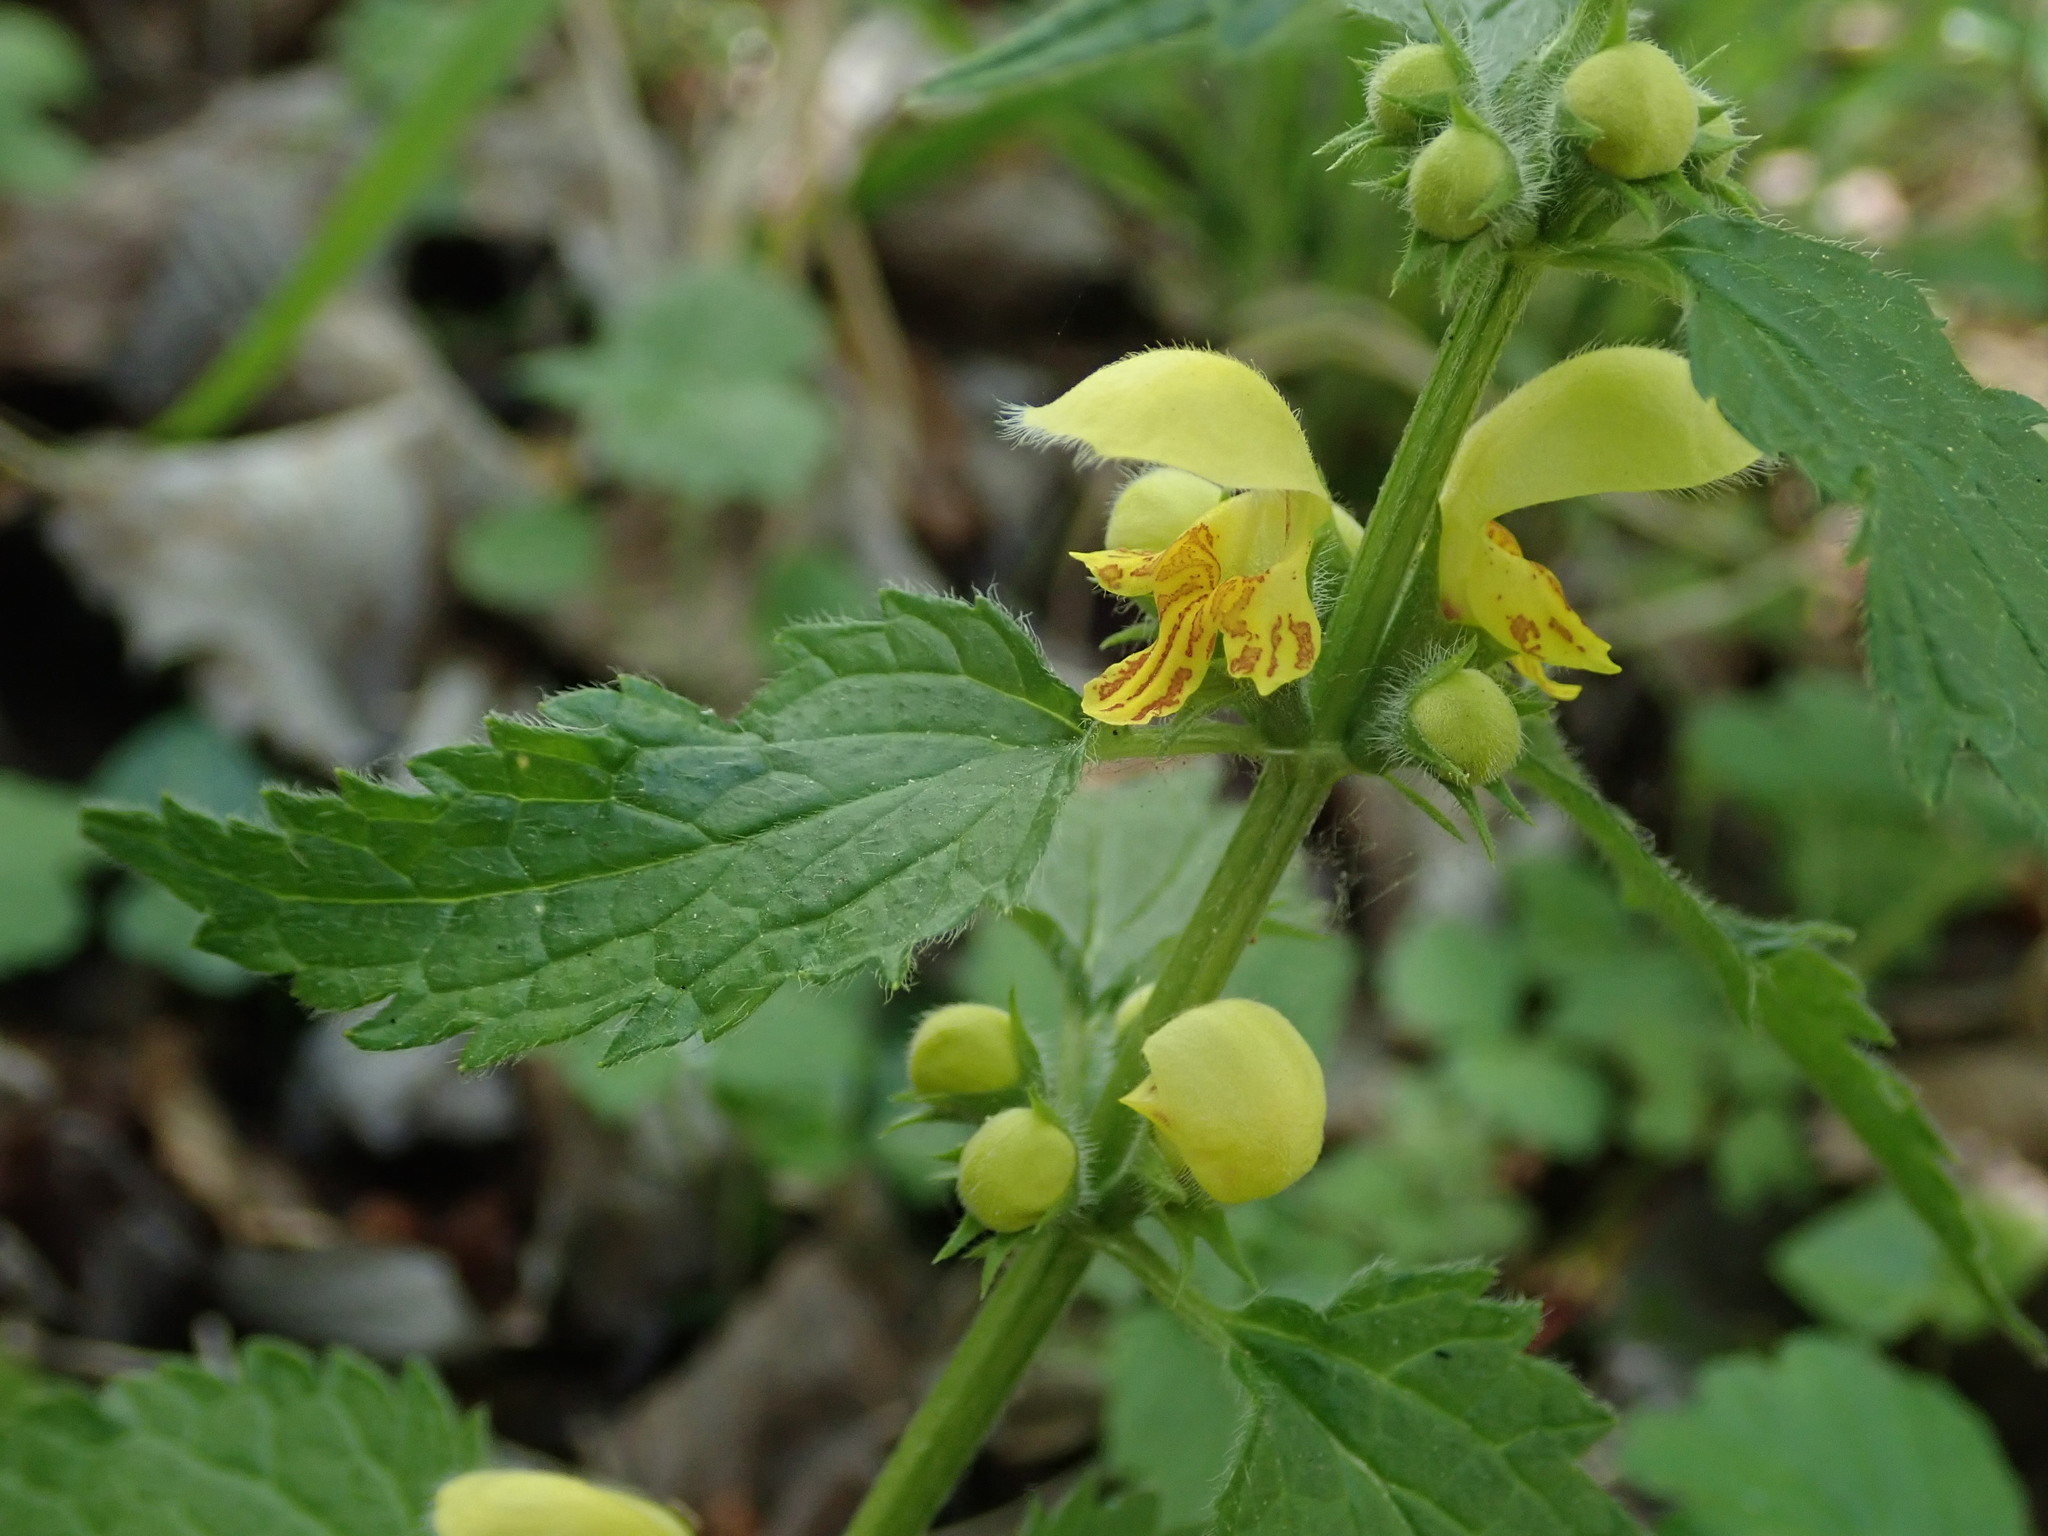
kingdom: Plantae
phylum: Tracheophyta
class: Magnoliopsida
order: Lamiales
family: Lamiaceae
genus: Lamium
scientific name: Lamium galeobdolon
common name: Yellow archangel
